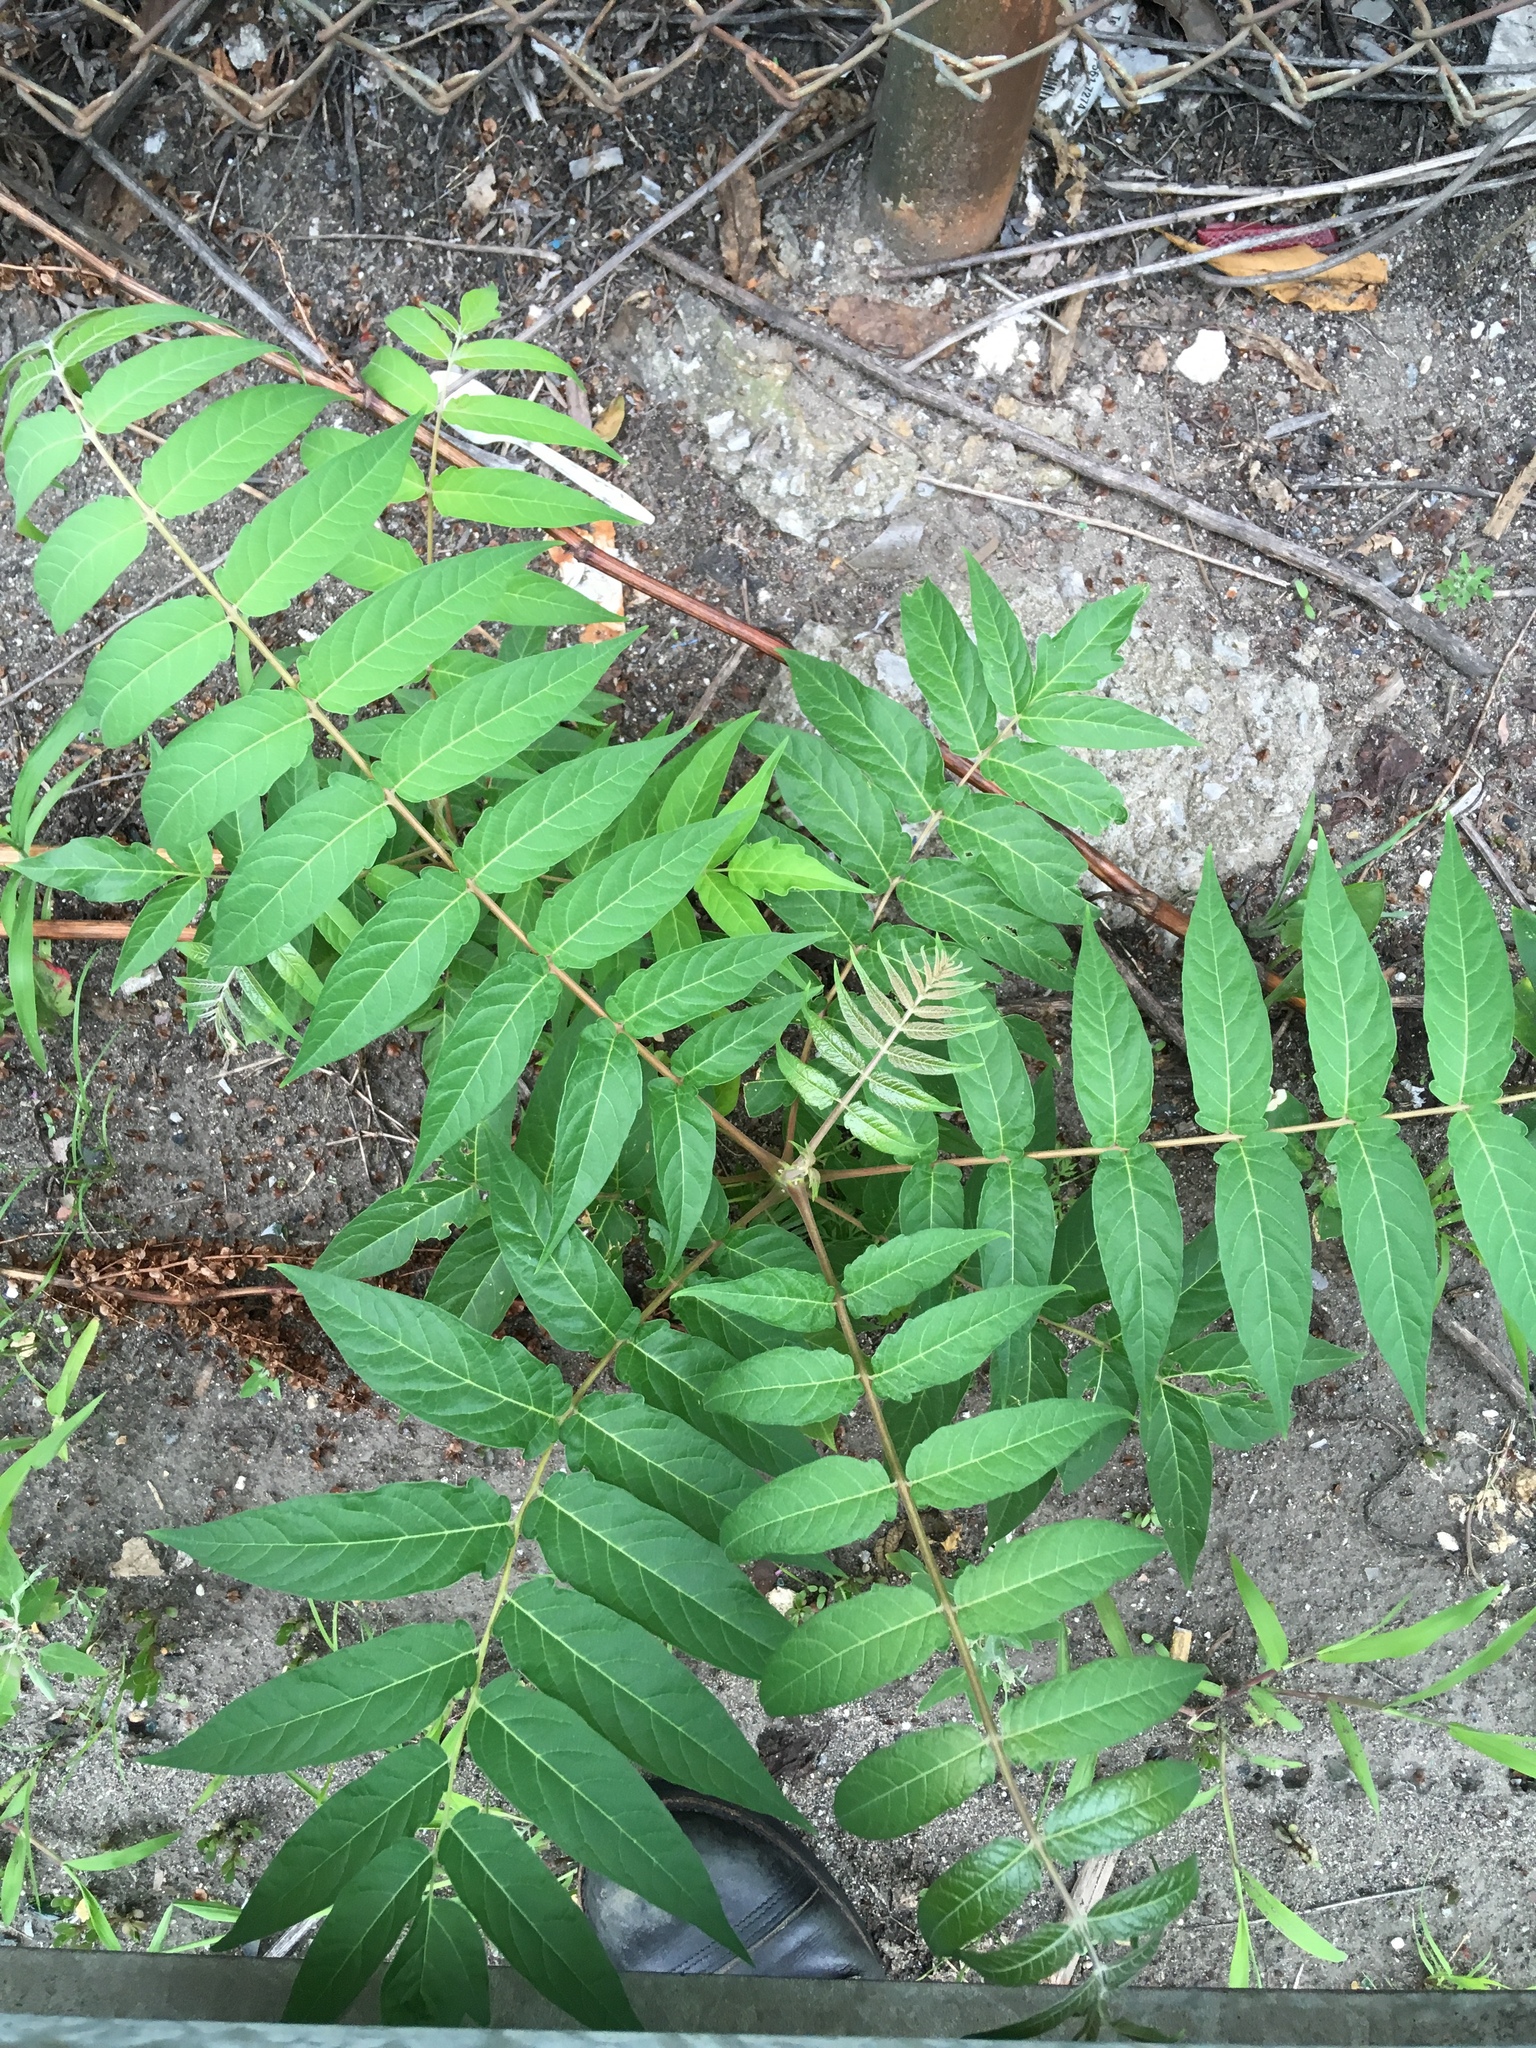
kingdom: Plantae
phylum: Tracheophyta
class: Magnoliopsida
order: Sapindales
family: Simaroubaceae
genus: Ailanthus
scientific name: Ailanthus altissima
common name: Tree-of-heaven
